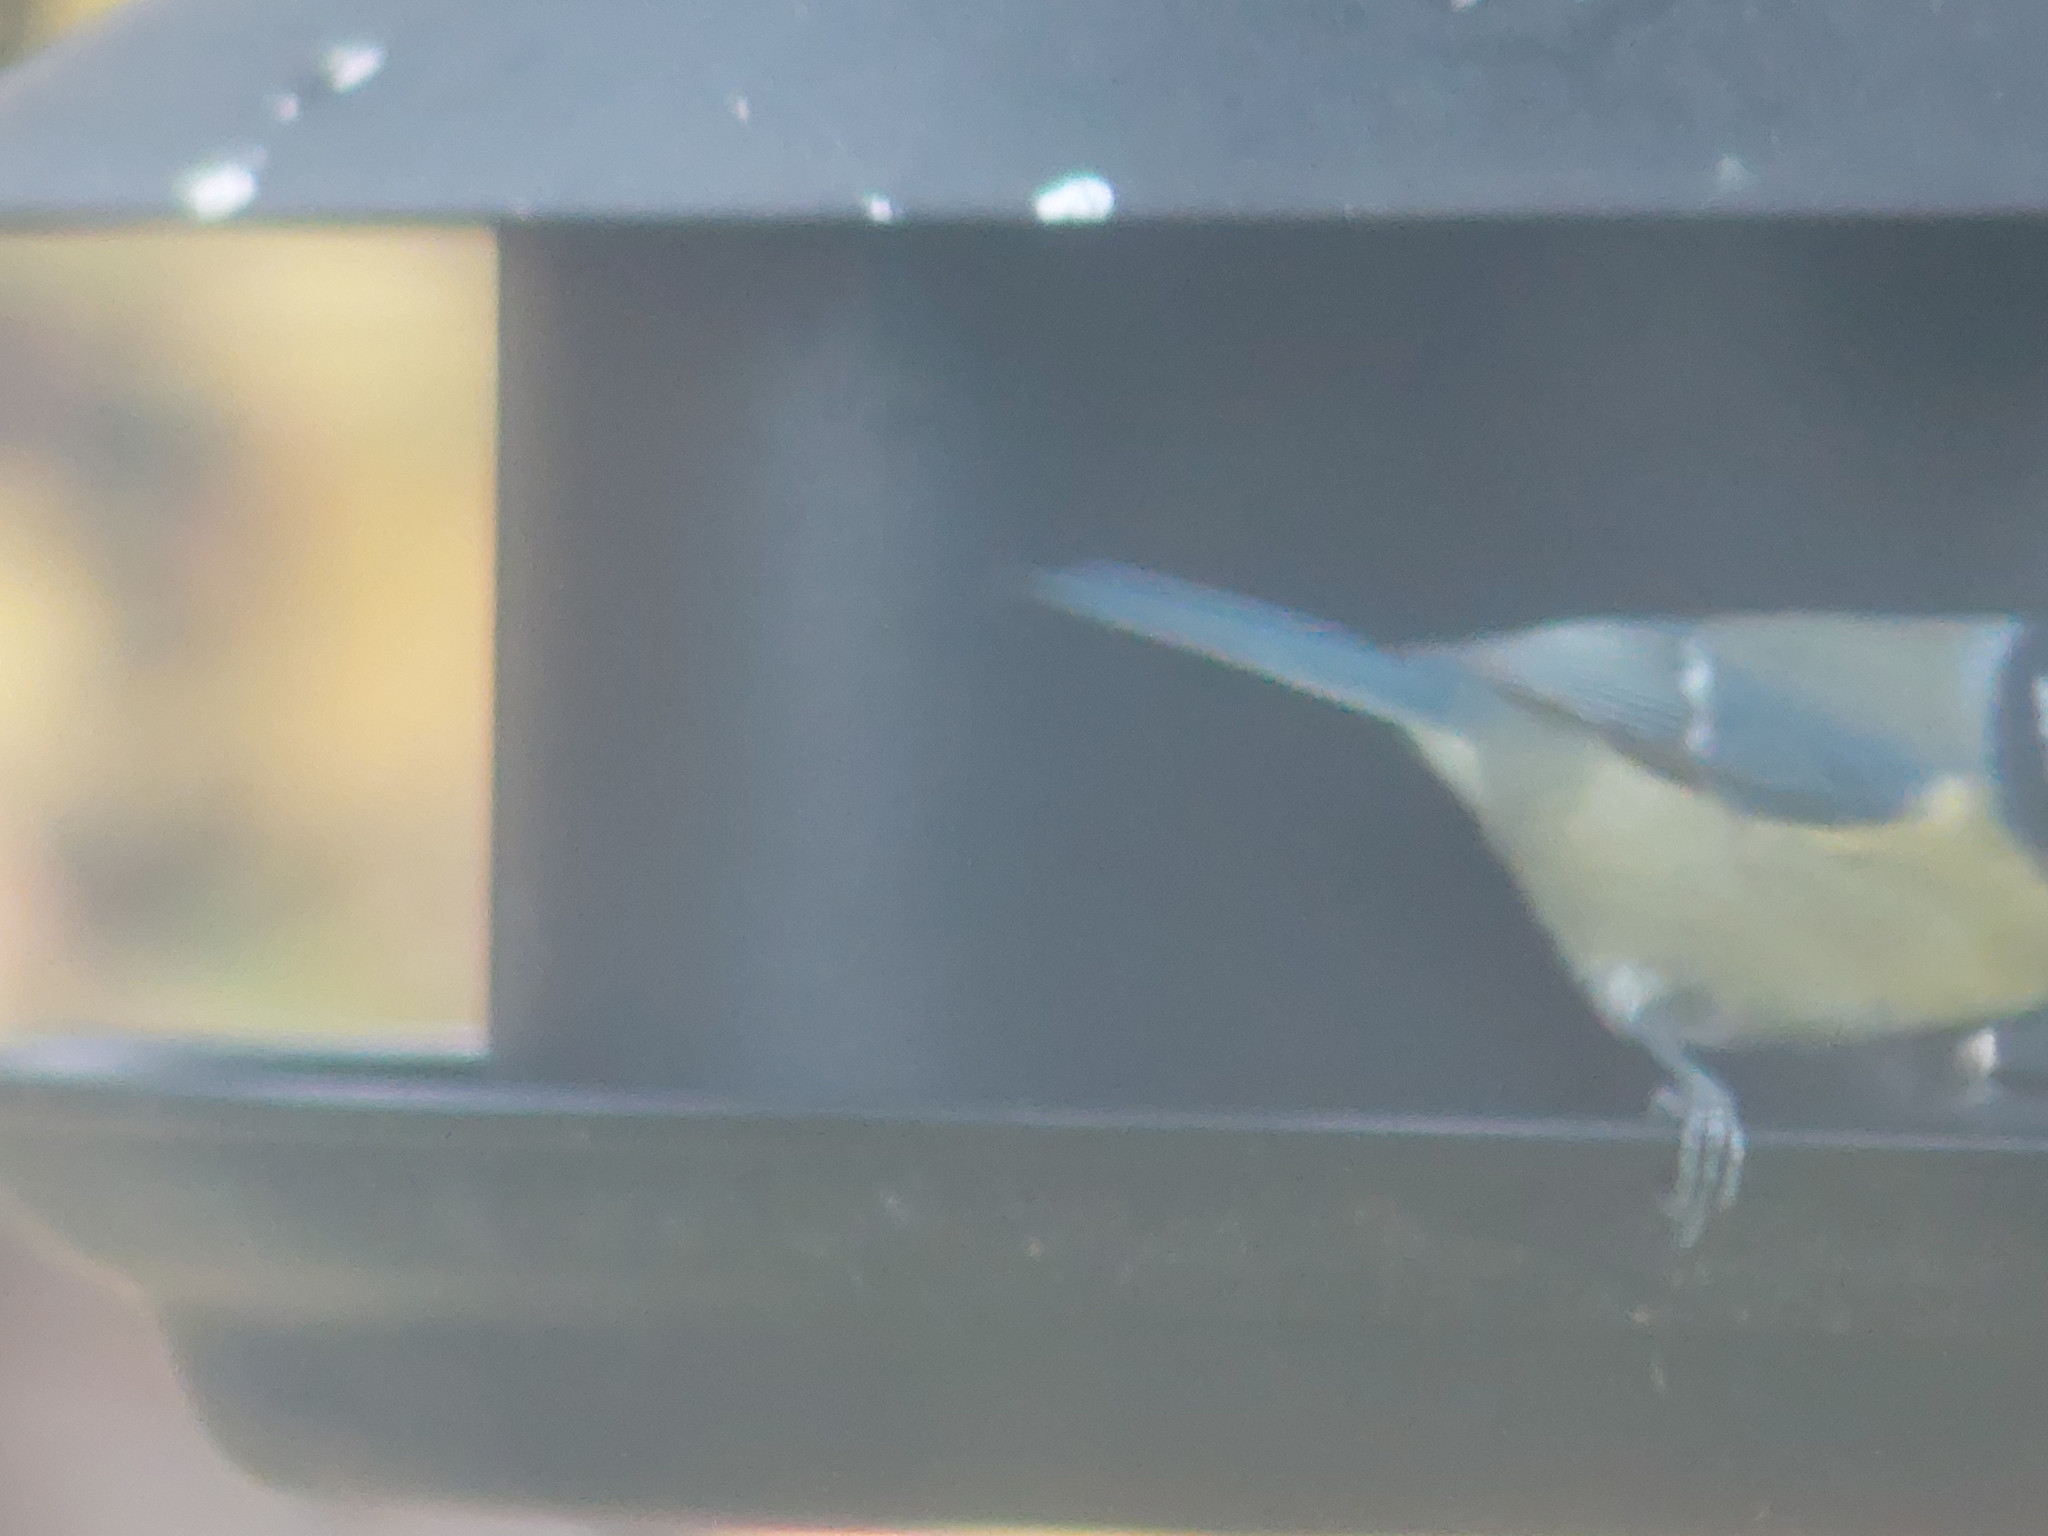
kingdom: Animalia
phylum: Chordata
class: Aves
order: Passeriformes
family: Paridae
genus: Cyanistes
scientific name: Cyanistes caeruleus
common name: Eurasian blue tit
